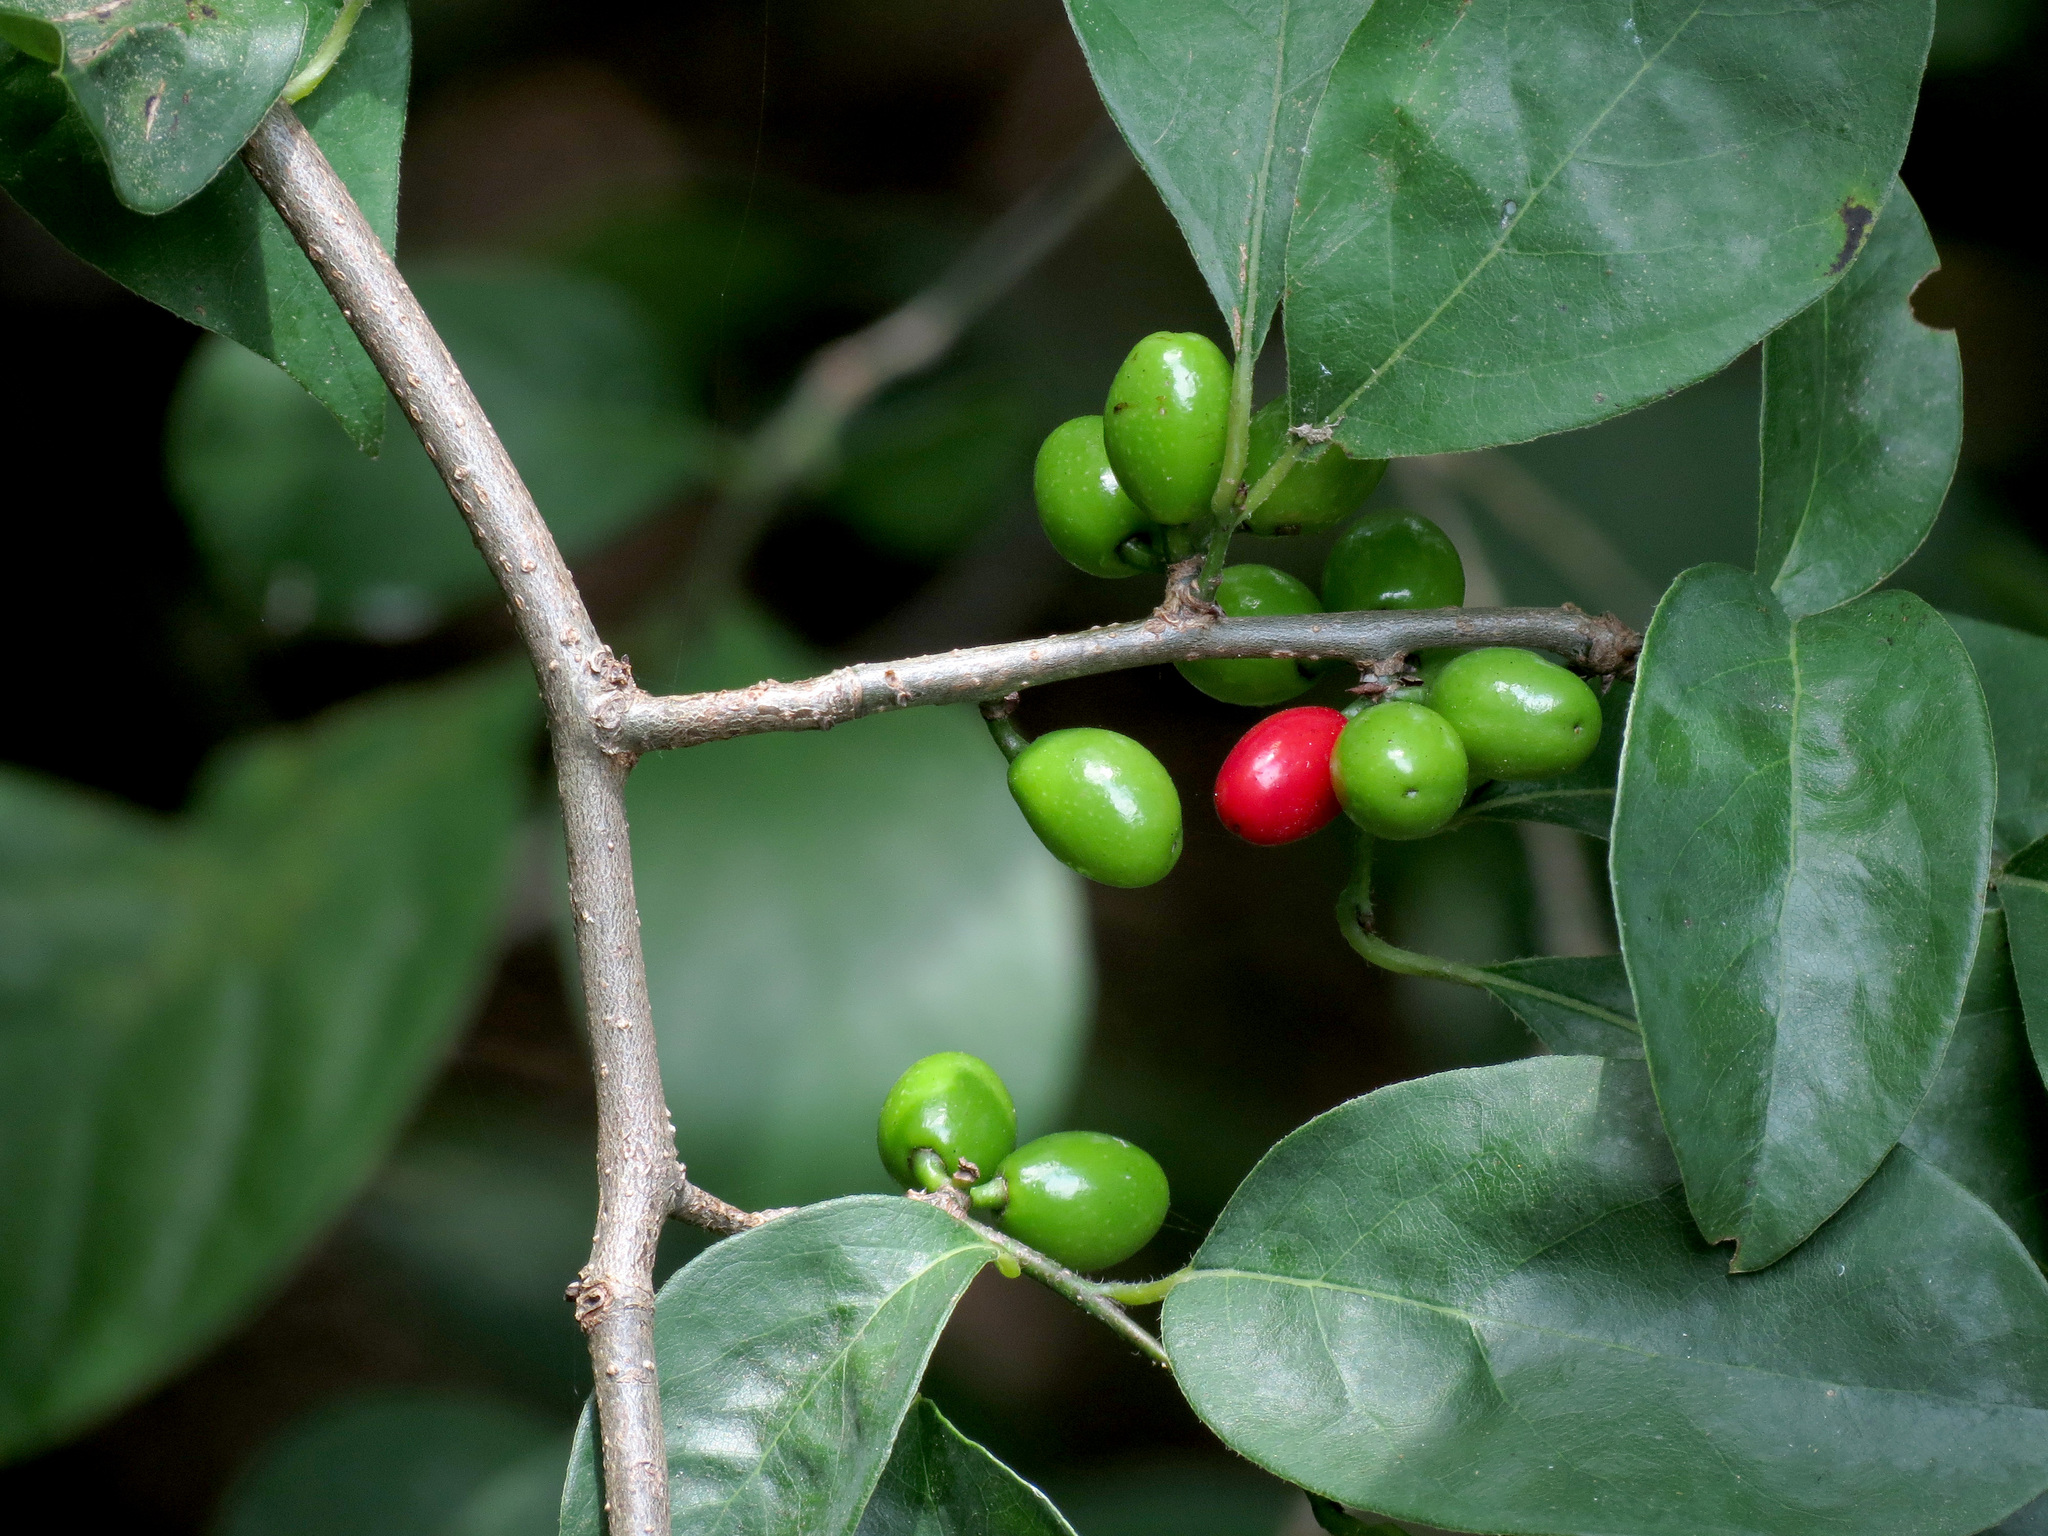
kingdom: Plantae
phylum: Tracheophyta
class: Magnoliopsida
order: Laurales
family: Lauraceae
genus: Lindera
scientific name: Lindera benzoin
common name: Spicebush
